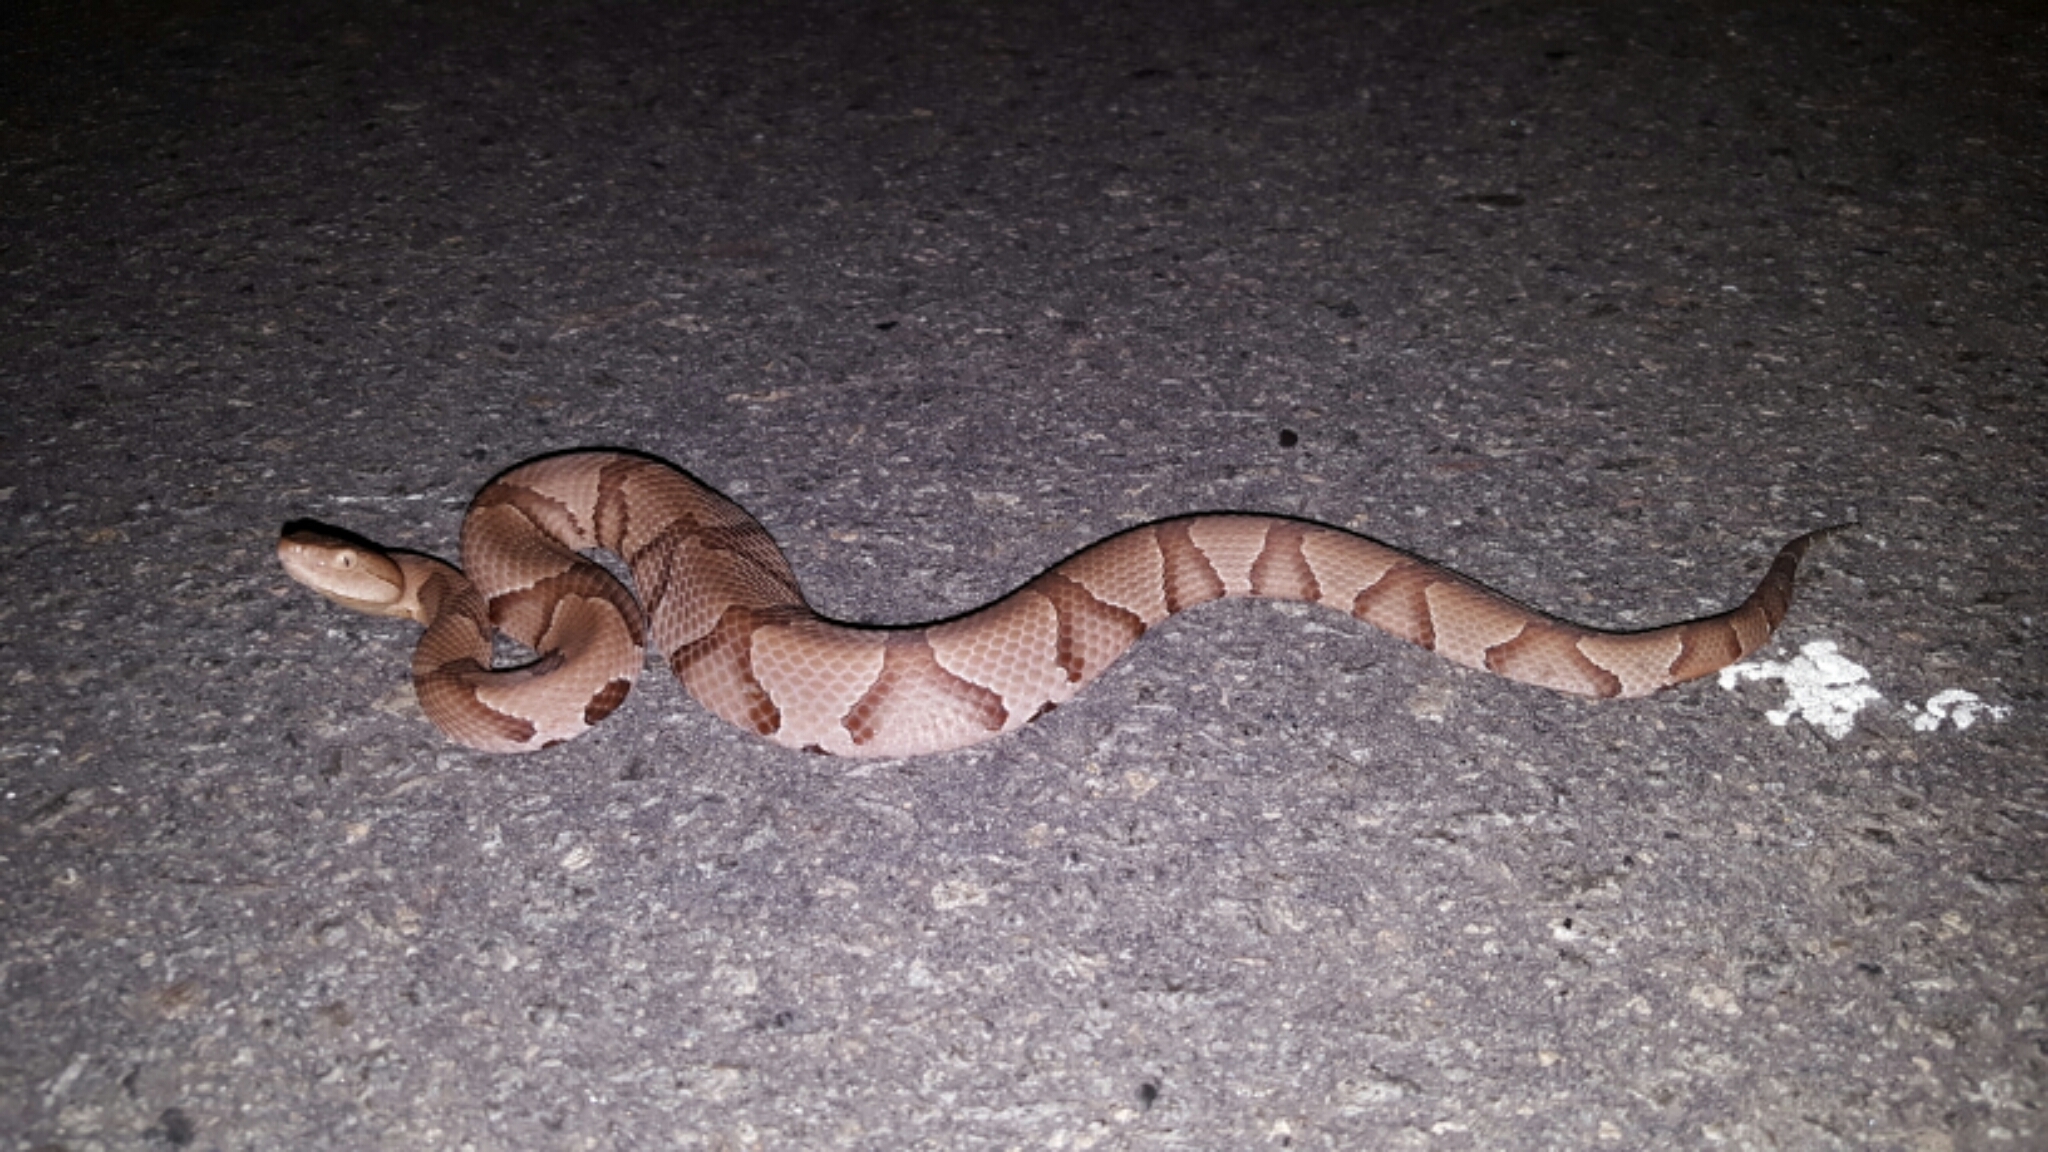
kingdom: Animalia
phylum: Chordata
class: Squamata
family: Viperidae
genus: Agkistrodon
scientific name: Agkistrodon contortrix
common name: Northern copperhead
